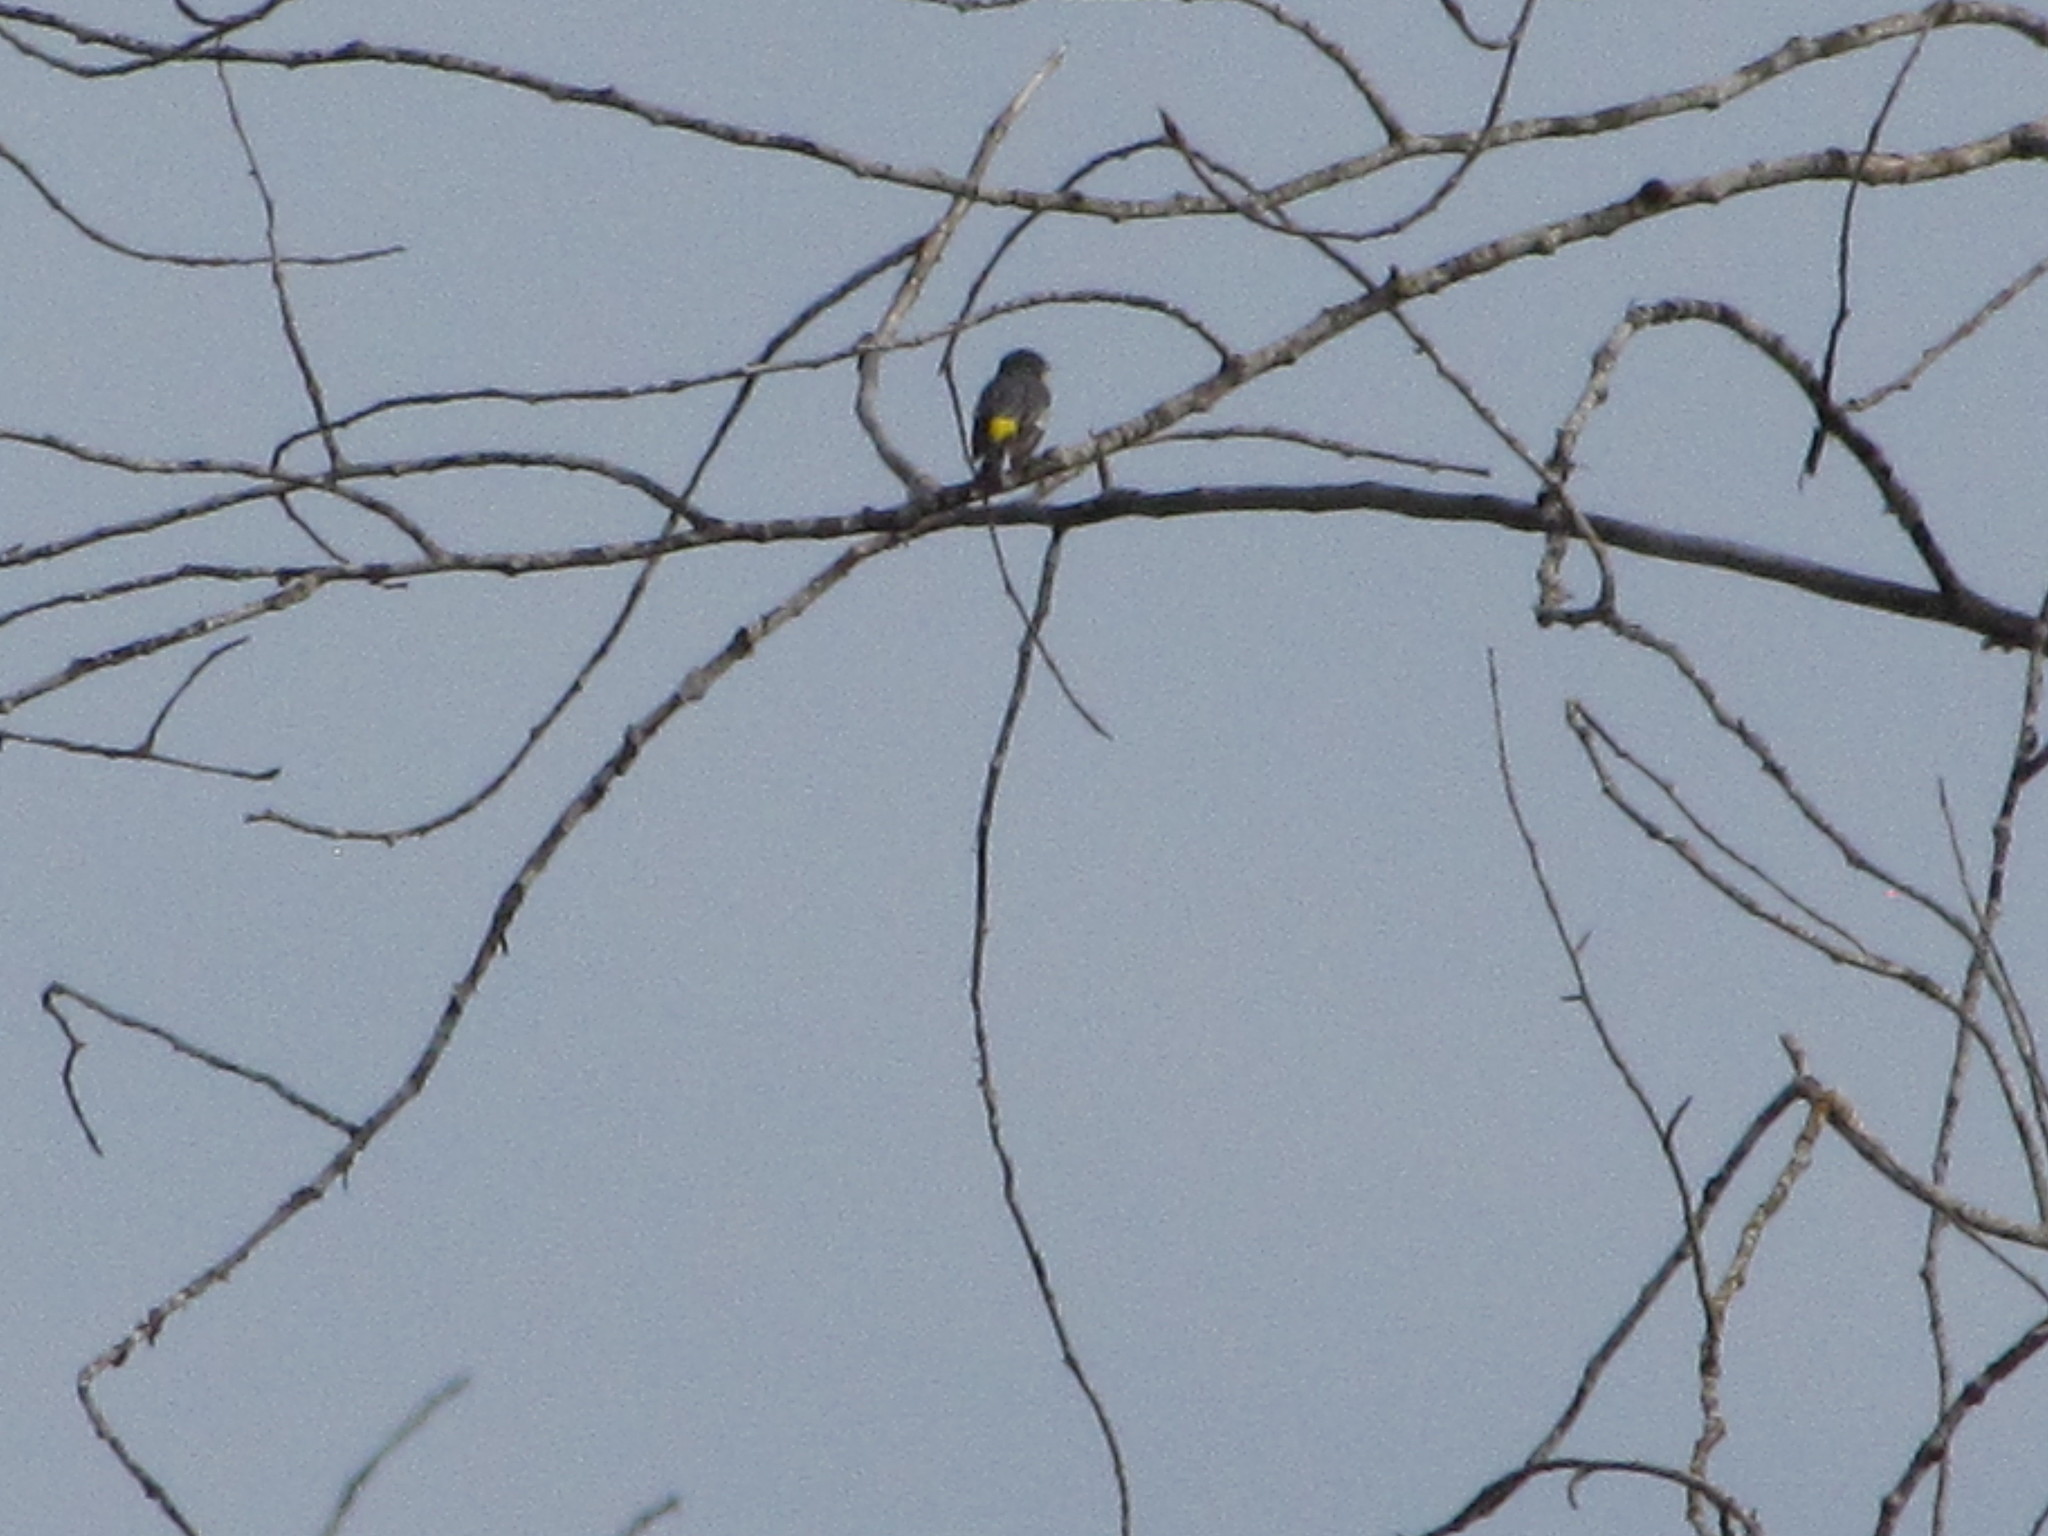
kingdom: Animalia
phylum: Chordata
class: Aves
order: Passeriformes
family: Parulidae
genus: Setophaga
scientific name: Setophaga auduboni
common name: Audubon's warbler
